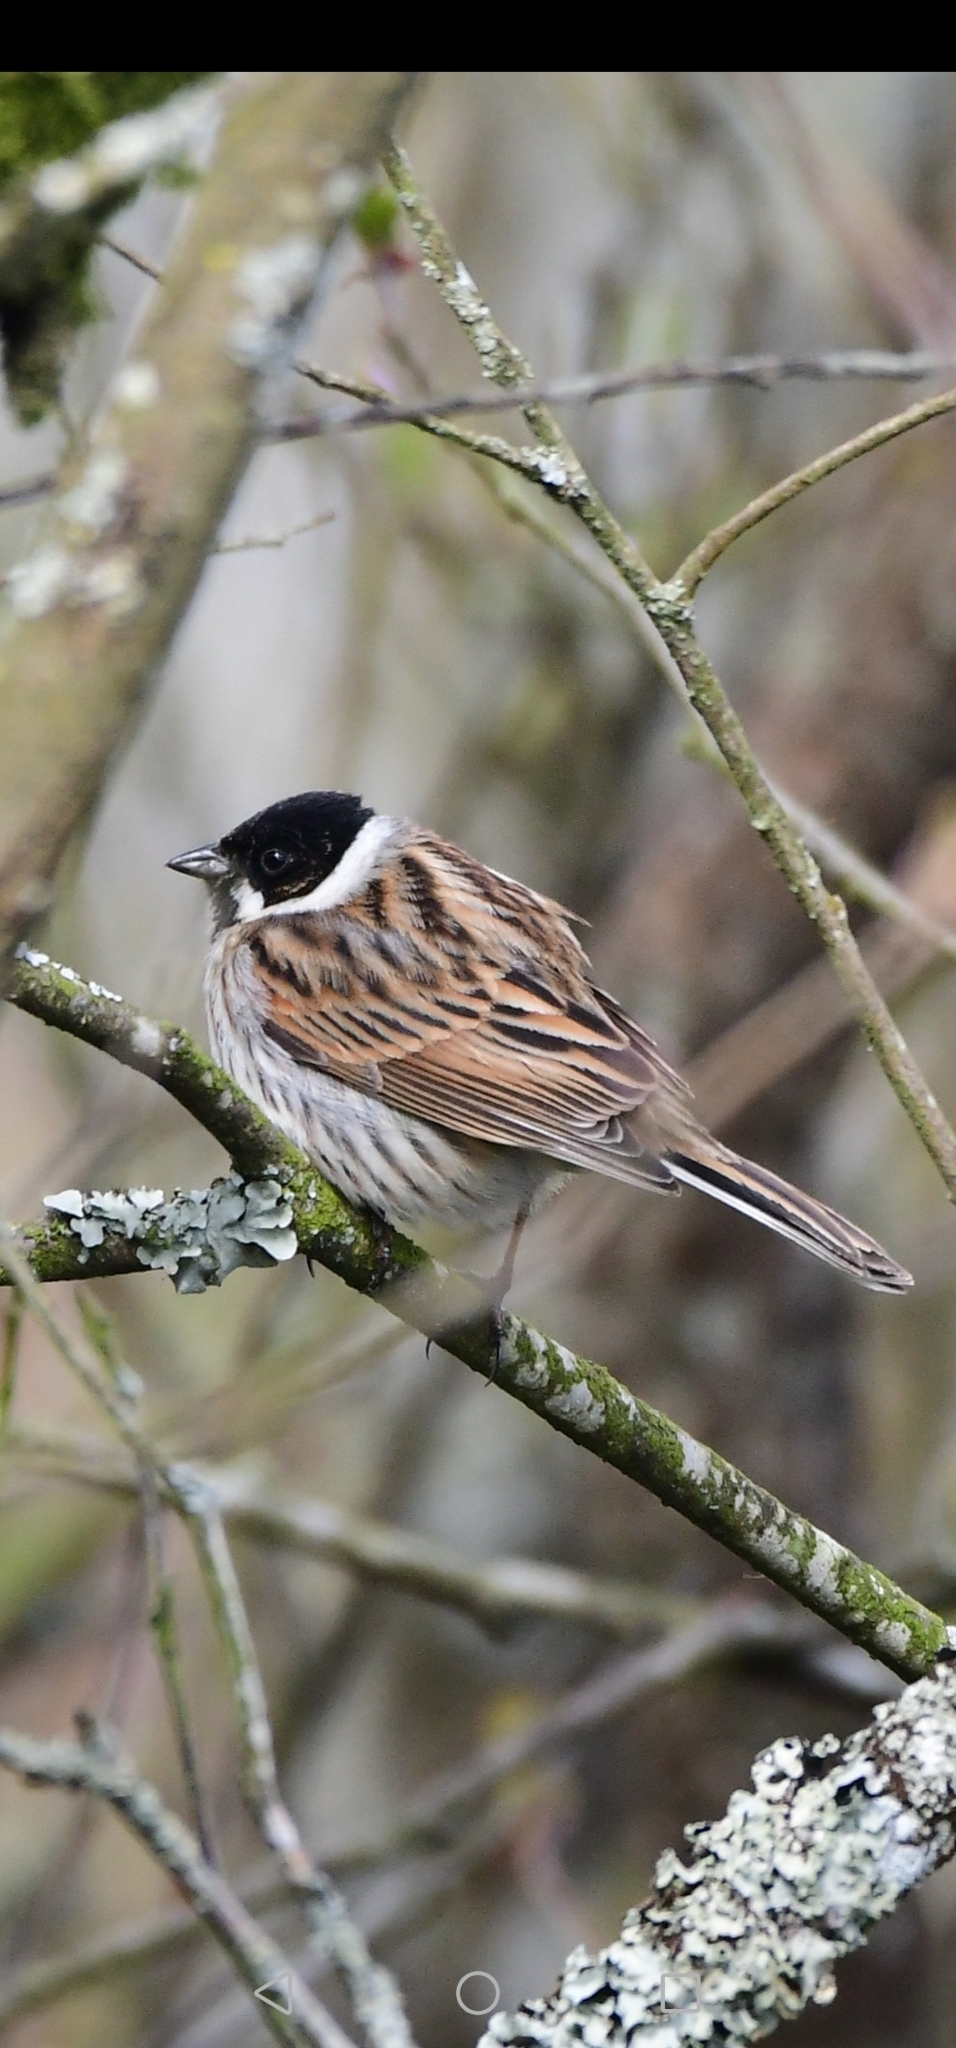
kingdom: Animalia
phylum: Chordata
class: Aves
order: Passeriformes
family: Emberizidae
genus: Emberiza
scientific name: Emberiza schoeniclus
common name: Reed bunting
